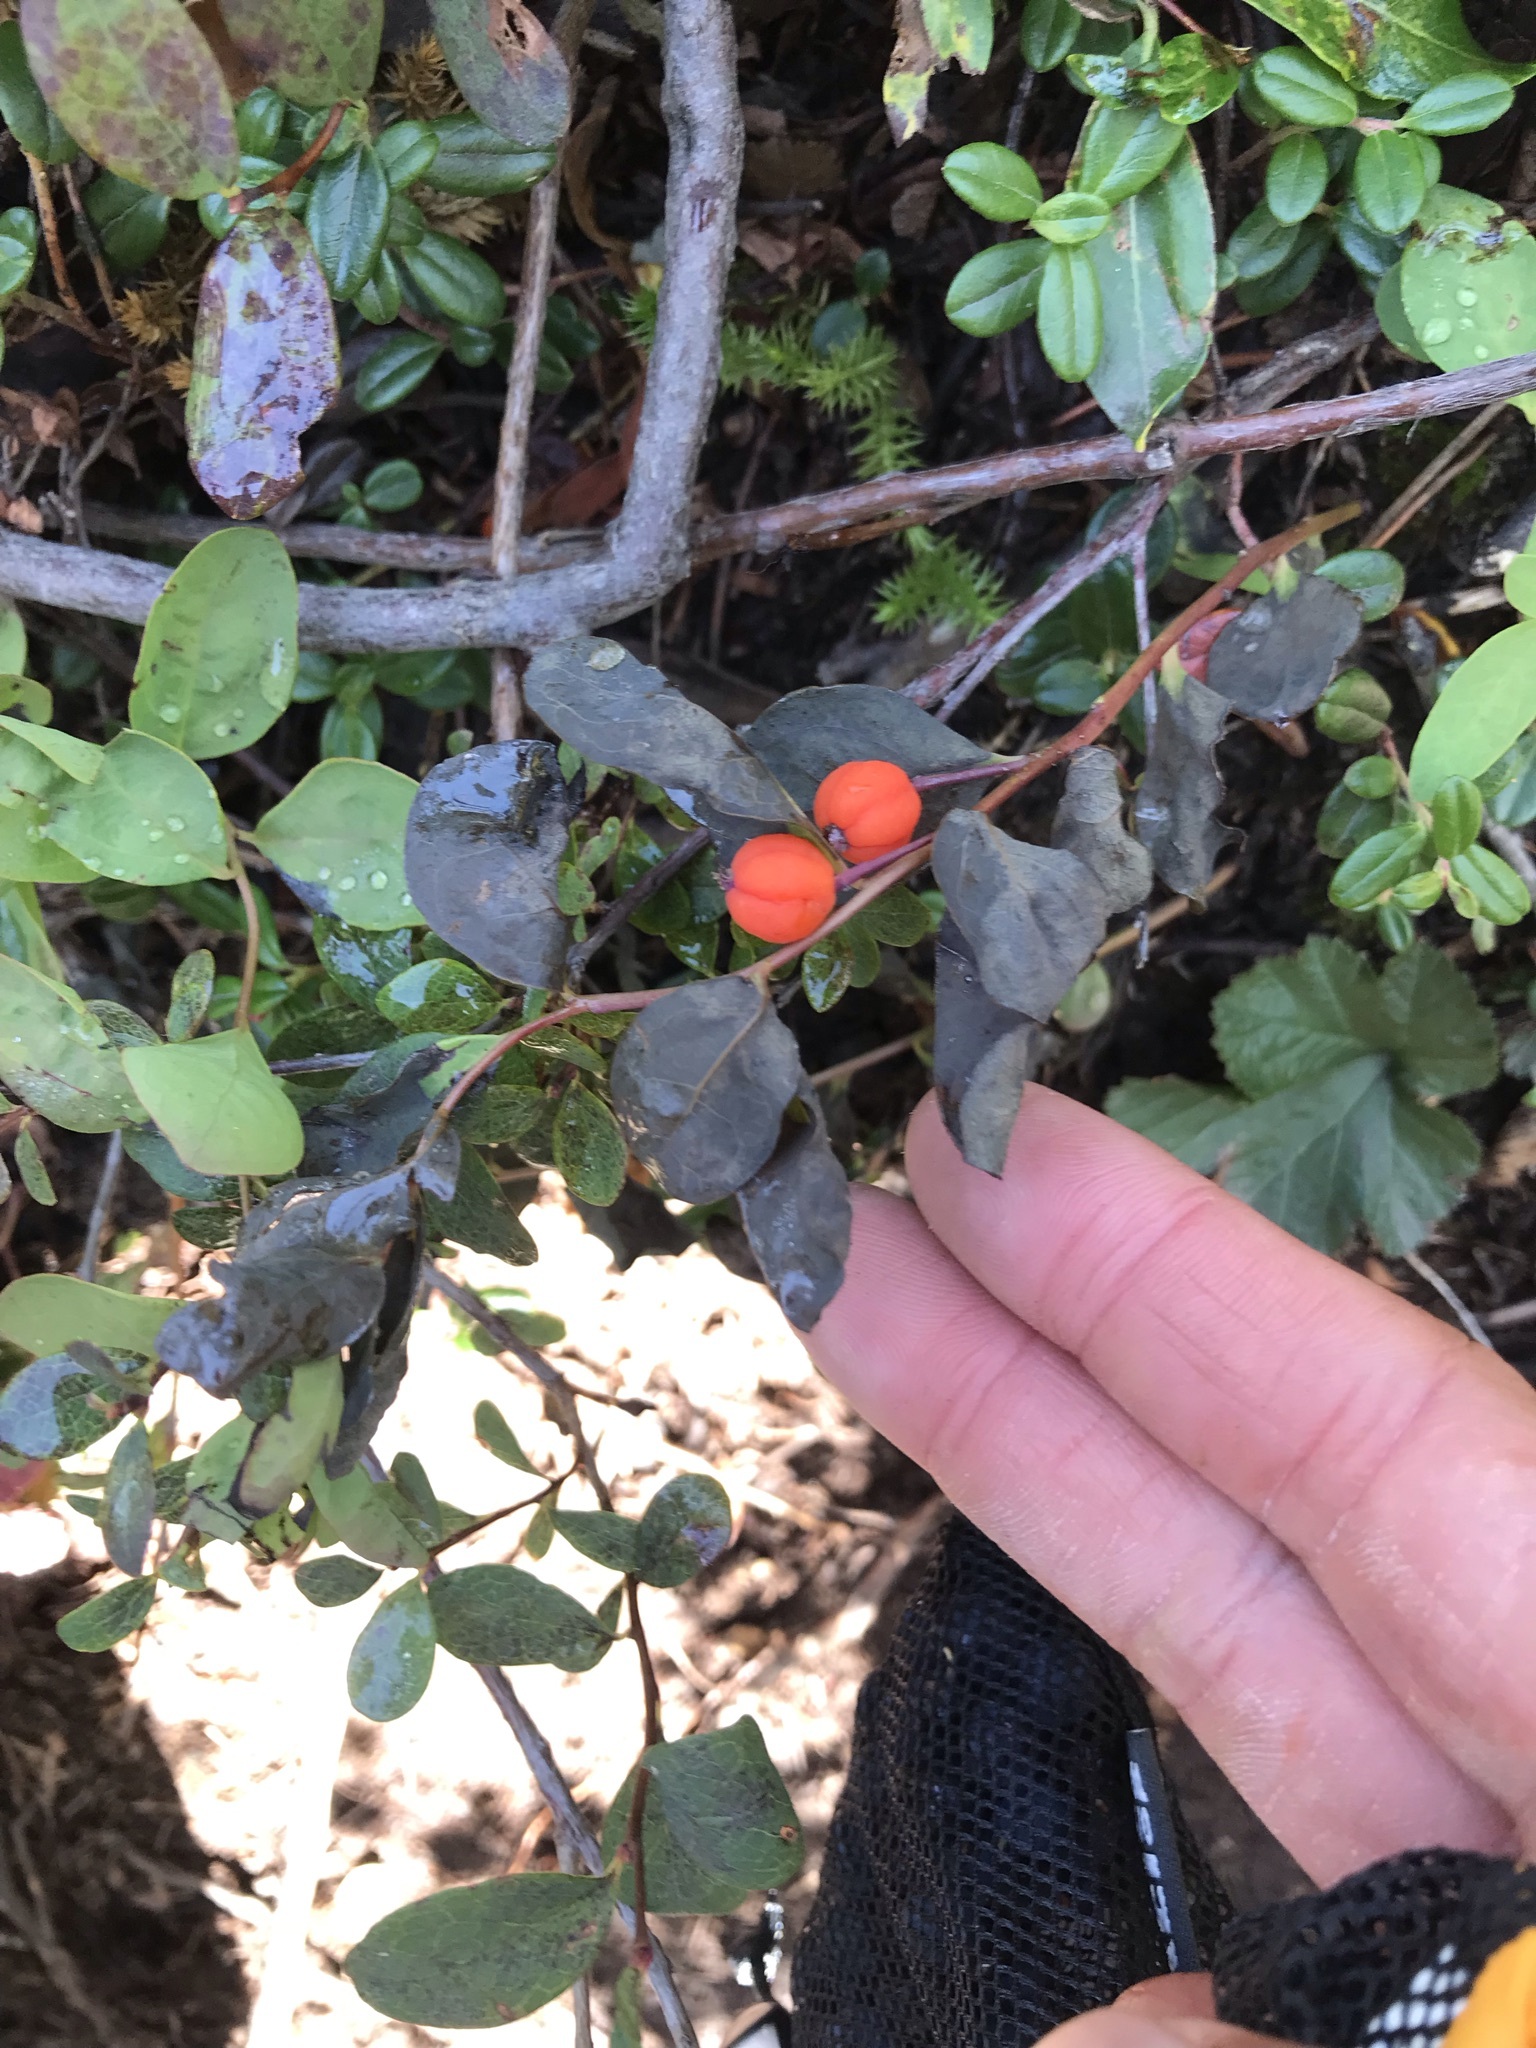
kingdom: Plantae
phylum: Tracheophyta
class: Magnoliopsida
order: Santalales
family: Comandraceae
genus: Geocaulon
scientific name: Geocaulon lividum
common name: Earthberry
